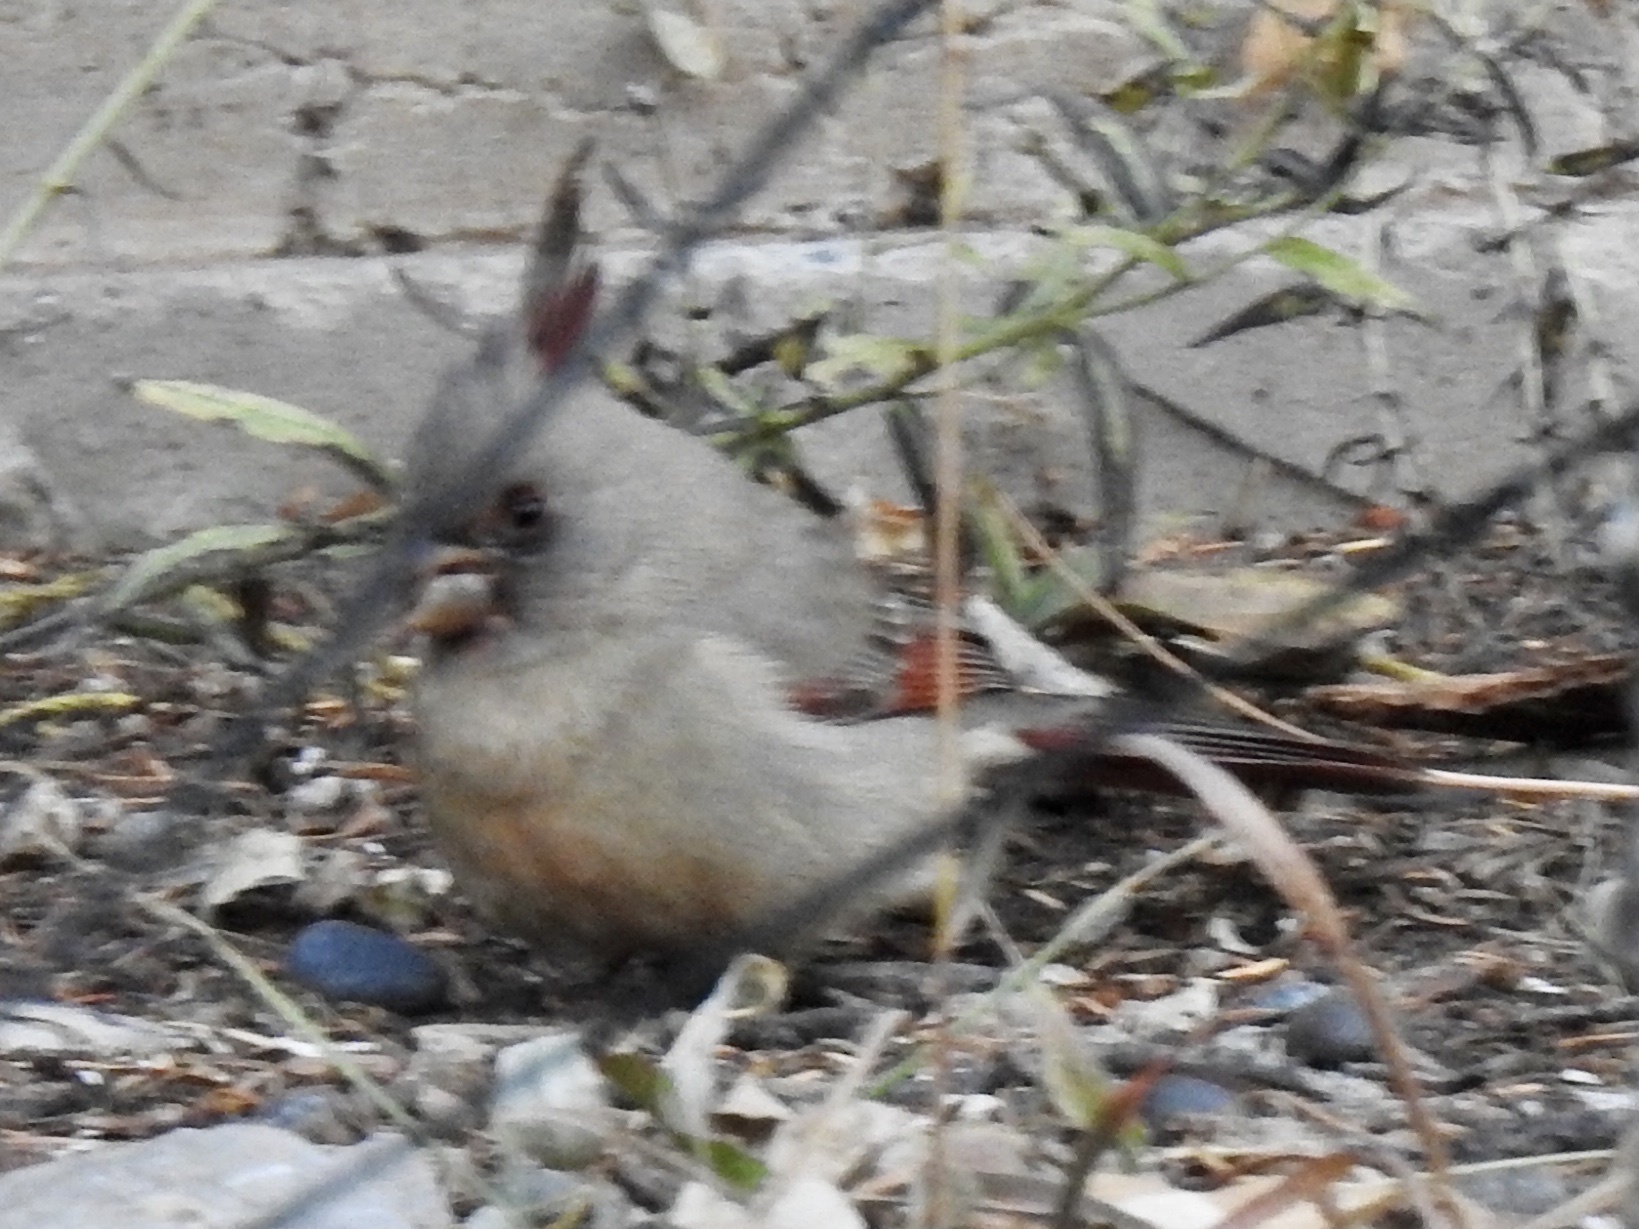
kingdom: Animalia
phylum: Chordata
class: Aves
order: Passeriformes
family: Cardinalidae
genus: Cardinalis
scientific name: Cardinalis sinuatus
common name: Pyrrhuloxia
